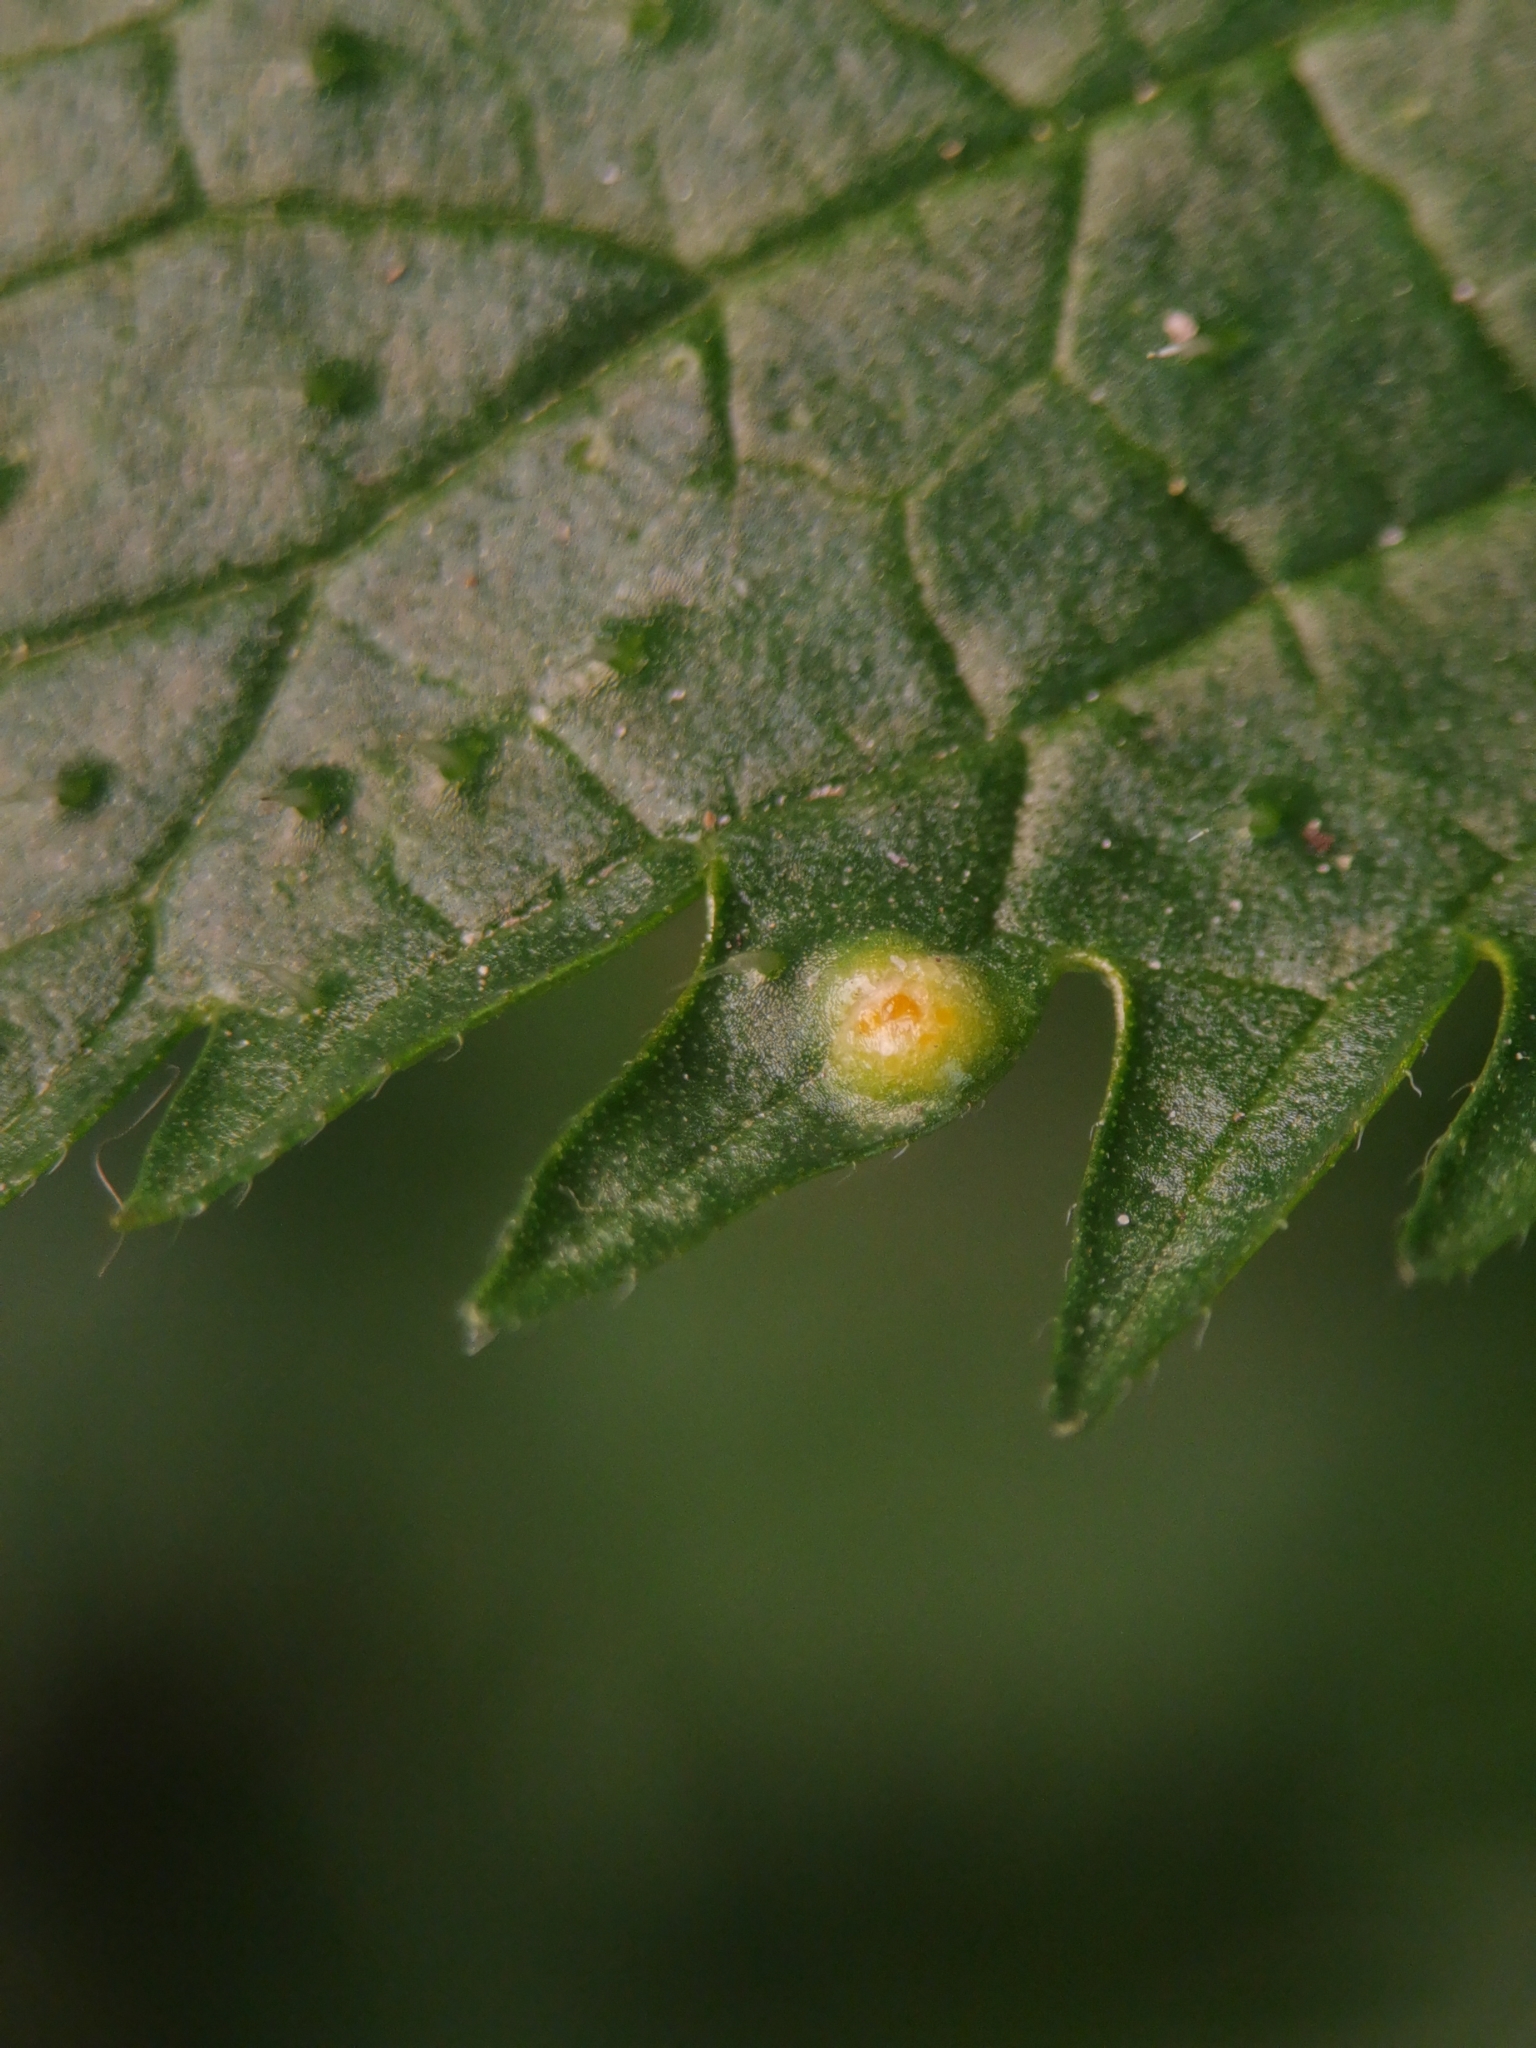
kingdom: Fungi
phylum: Basidiomycota
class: Pucciniomycetes
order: Pucciniales
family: Pucciniaceae
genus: Puccinia
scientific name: Puccinia urticata
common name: Nettle clustercup rust fungus
